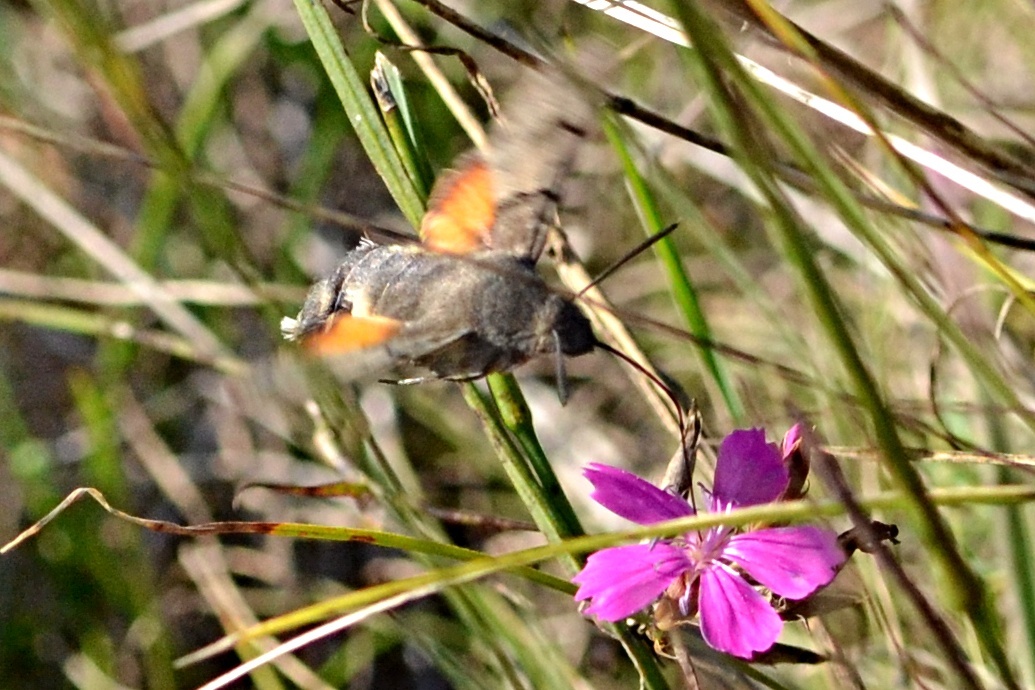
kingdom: Animalia
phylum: Arthropoda
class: Insecta
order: Lepidoptera
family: Sphingidae
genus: Macroglossum
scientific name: Macroglossum stellatarum
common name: Humming-bird hawk-moth
